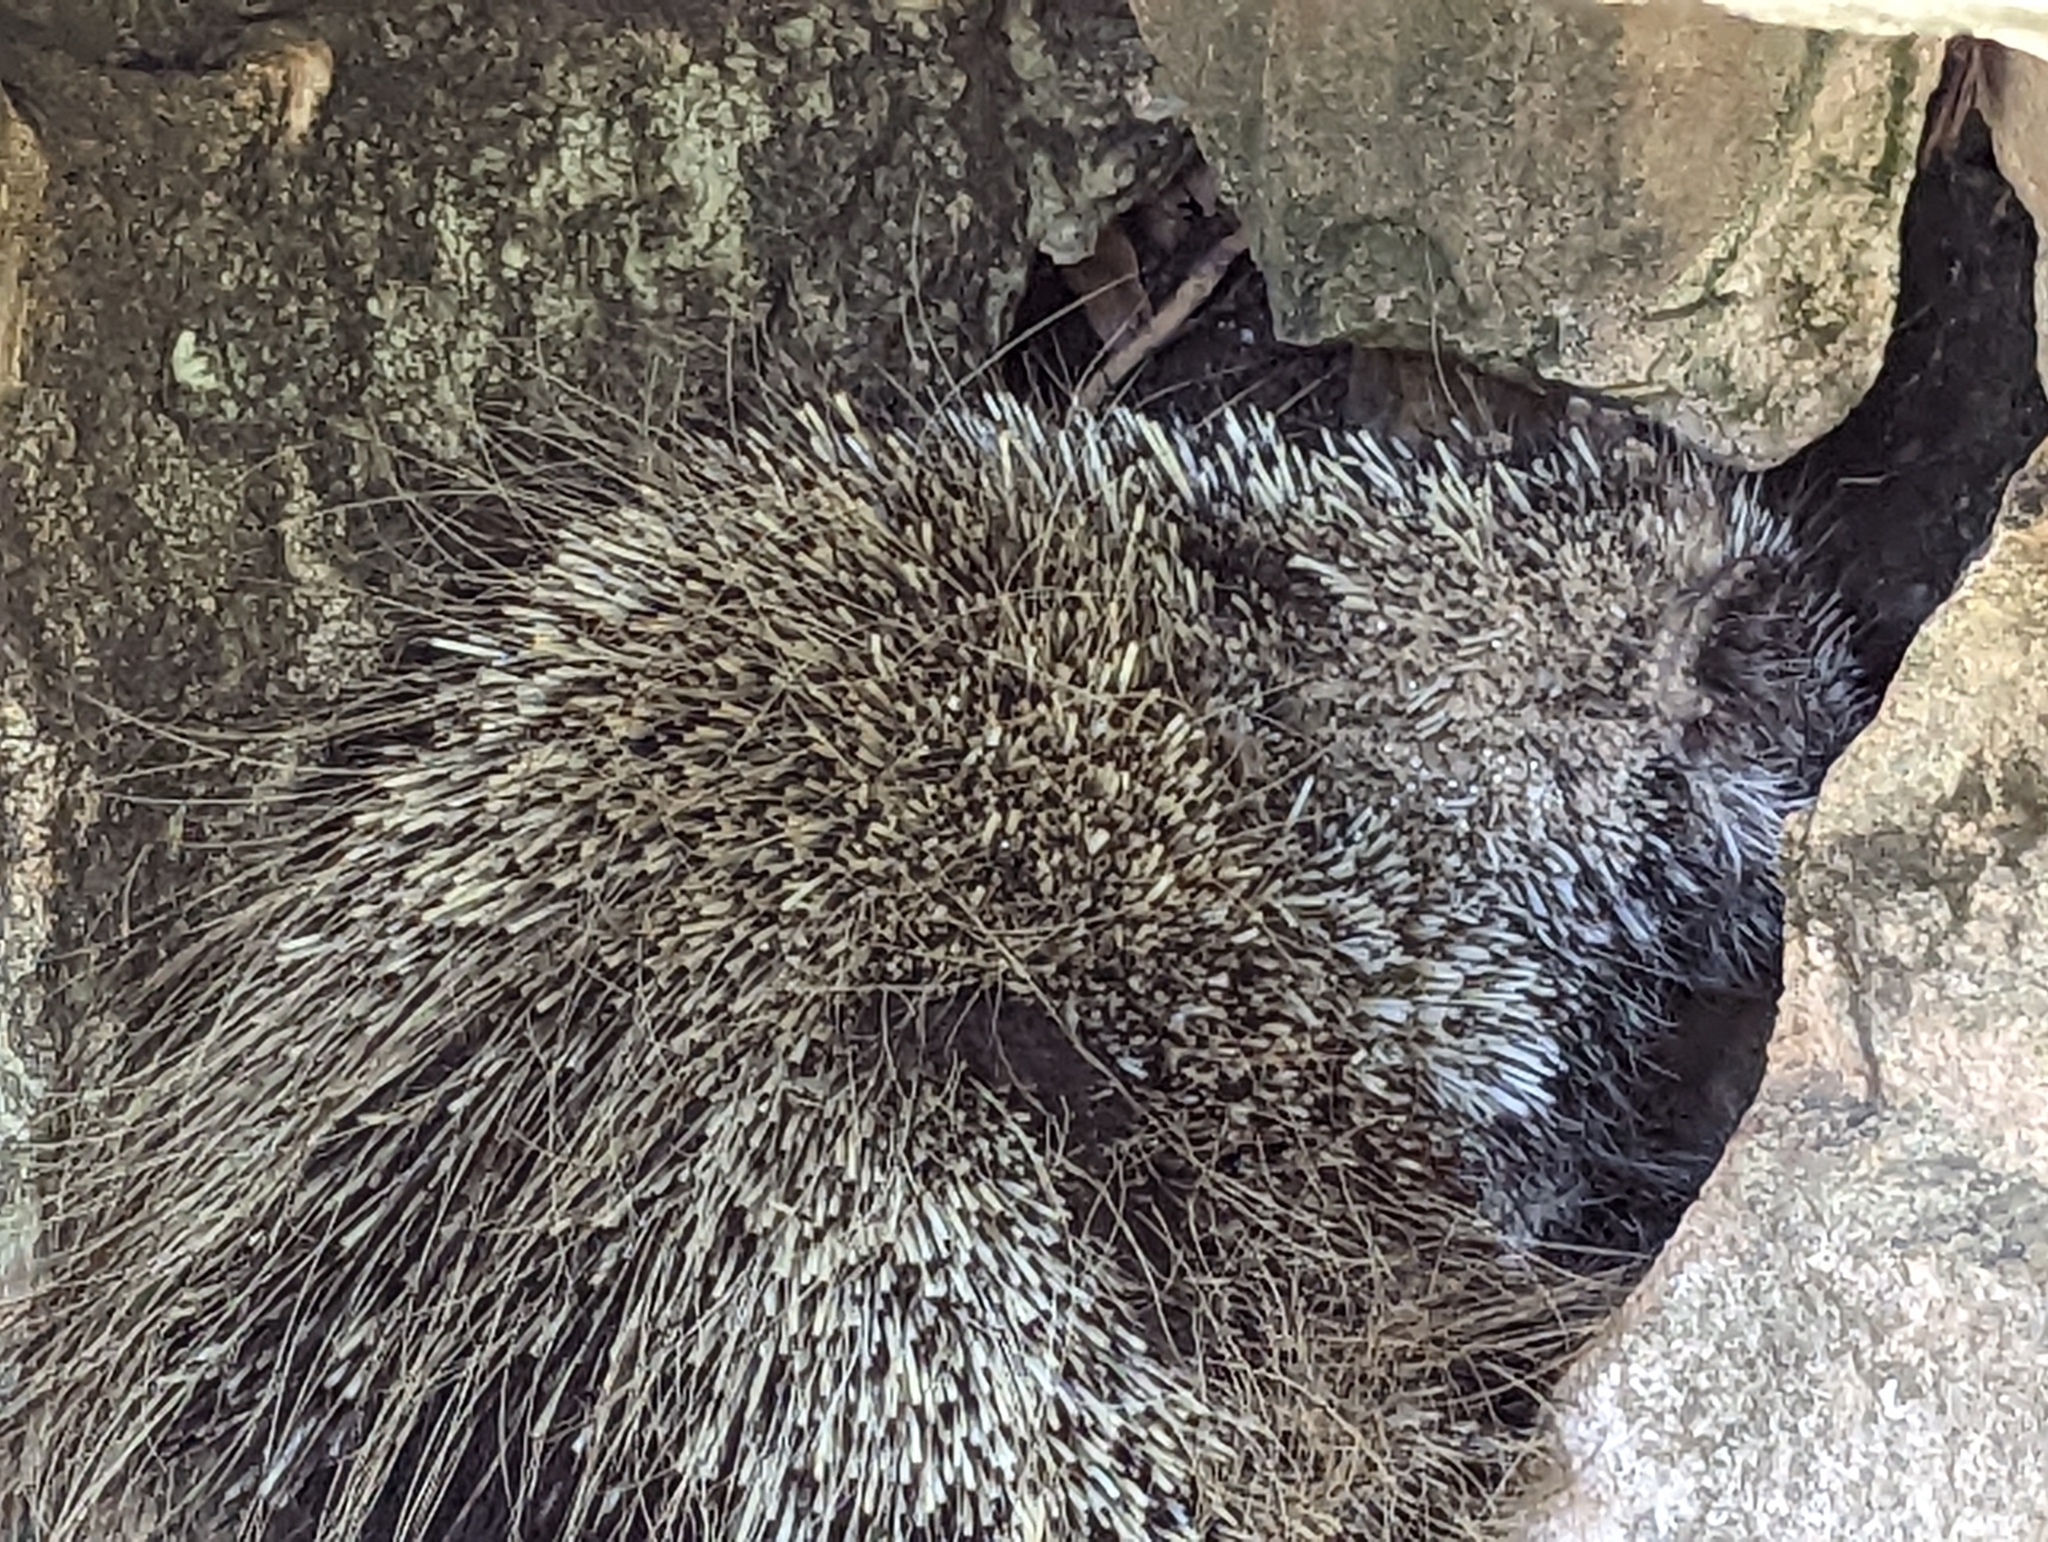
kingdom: Animalia
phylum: Chordata
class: Mammalia
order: Rodentia
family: Erethizontidae
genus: Erethizon
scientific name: Erethizon dorsatus
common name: North american porcupine
